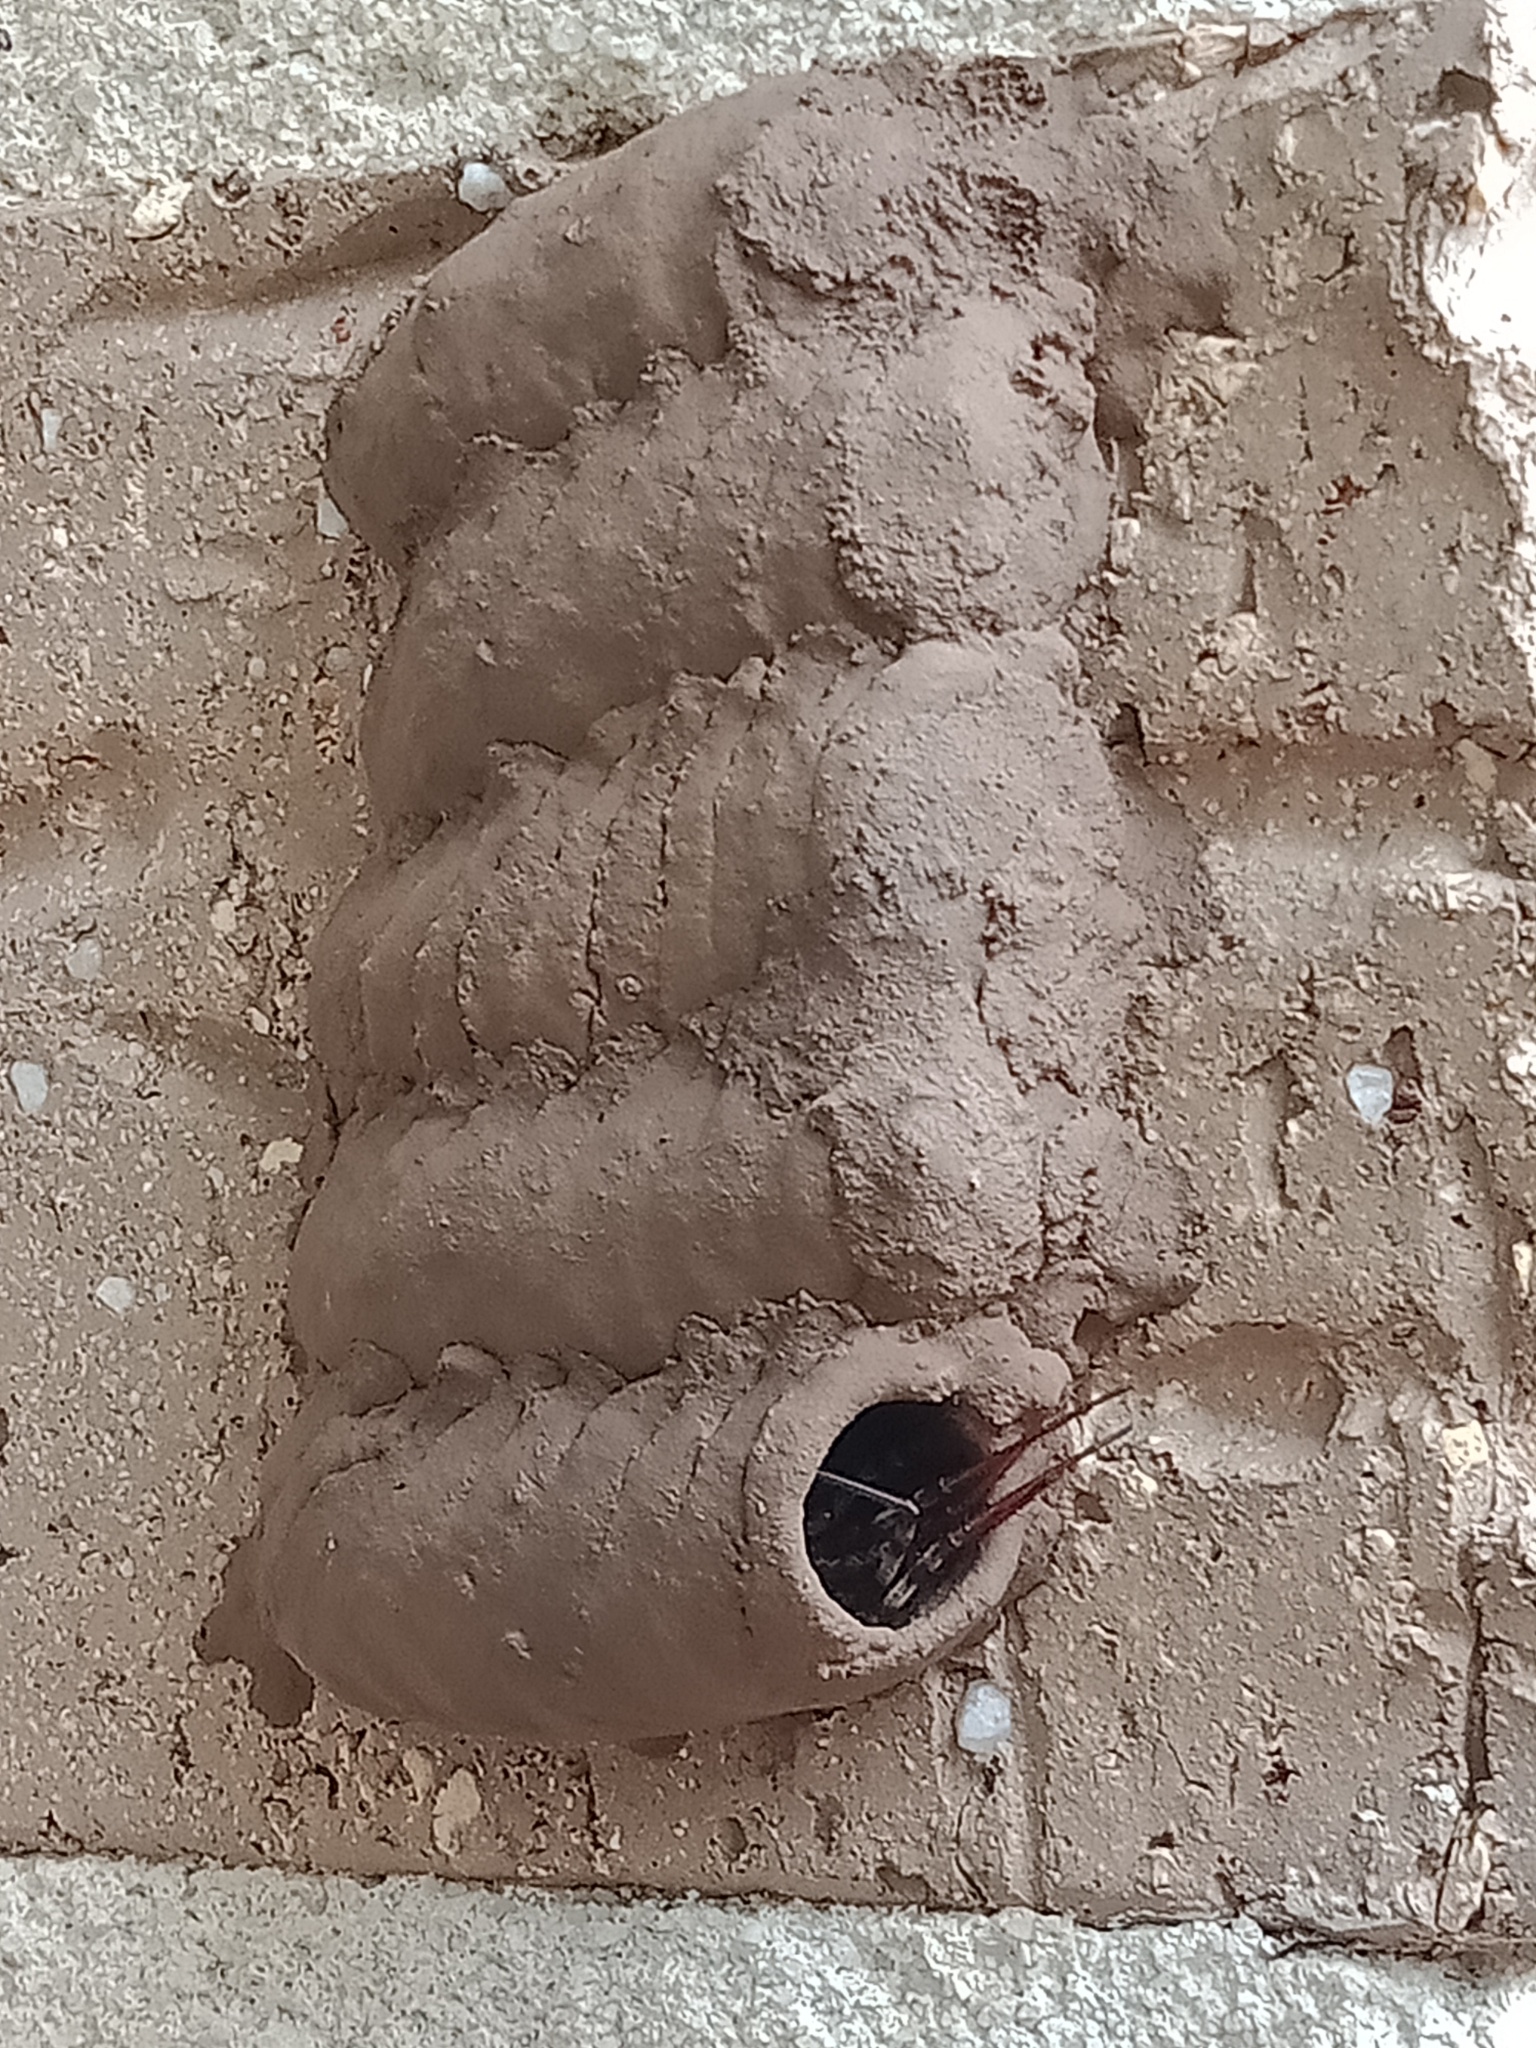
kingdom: Animalia
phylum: Arthropoda
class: Arachnida
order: Araneae
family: Araneidae
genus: Argiope
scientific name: Argiope keyserlingi
